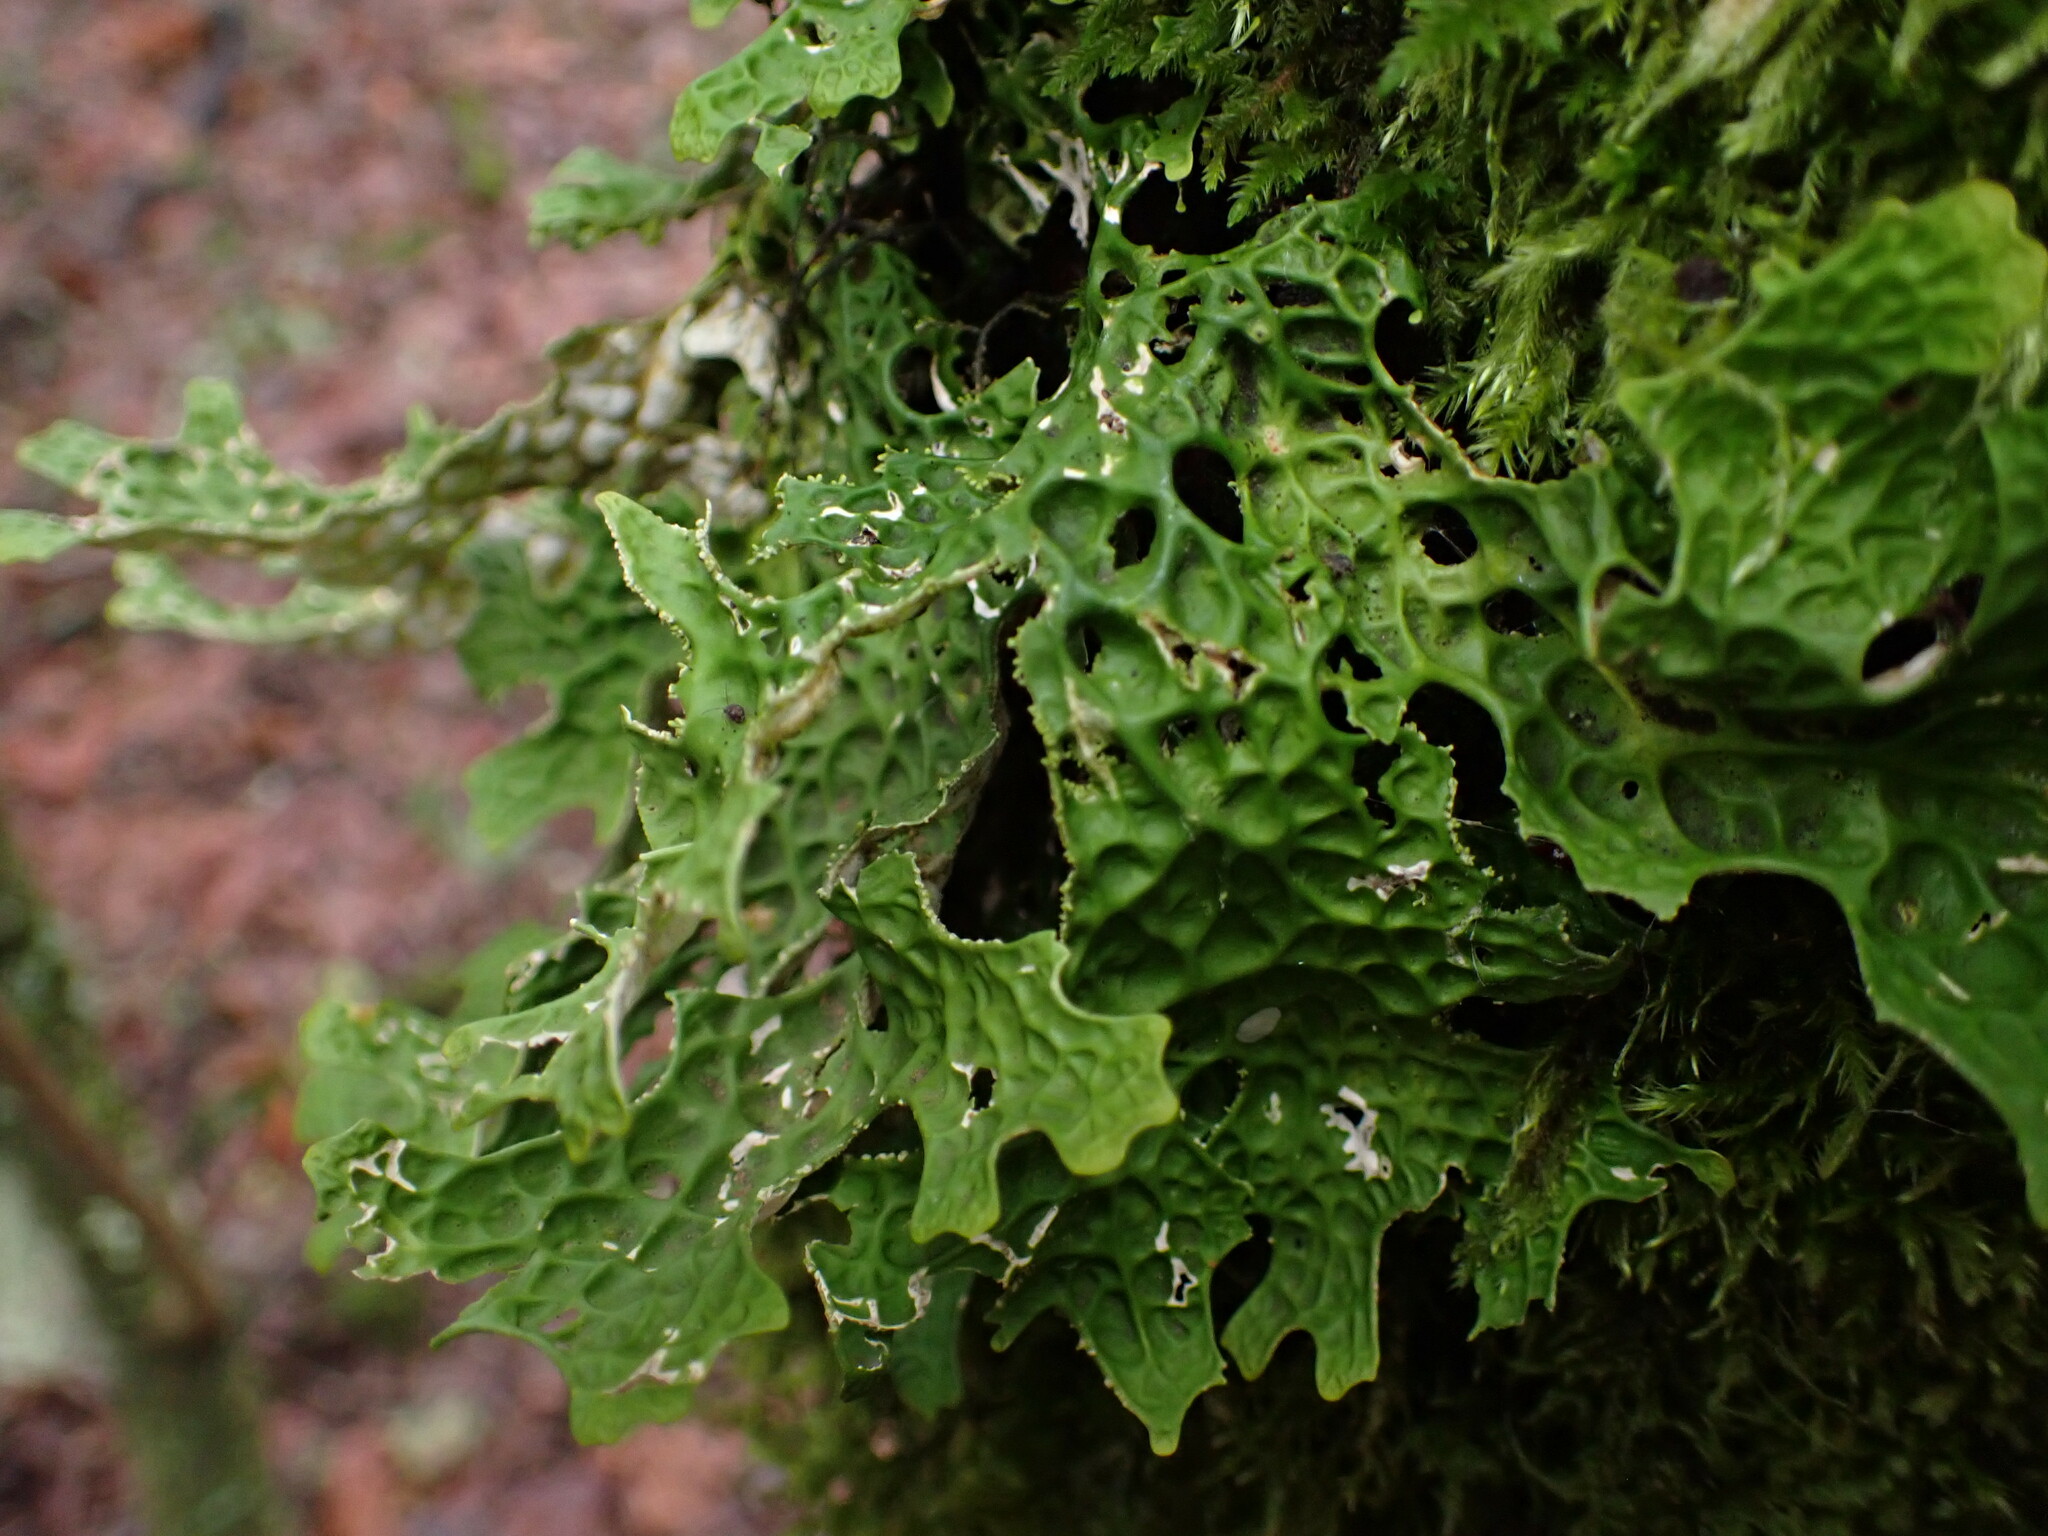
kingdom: Fungi
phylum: Ascomycota
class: Lecanoromycetes
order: Peltigerales
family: Lobariaceae
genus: Lobaria
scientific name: Lobaria pulmonaria
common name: Lungwort
